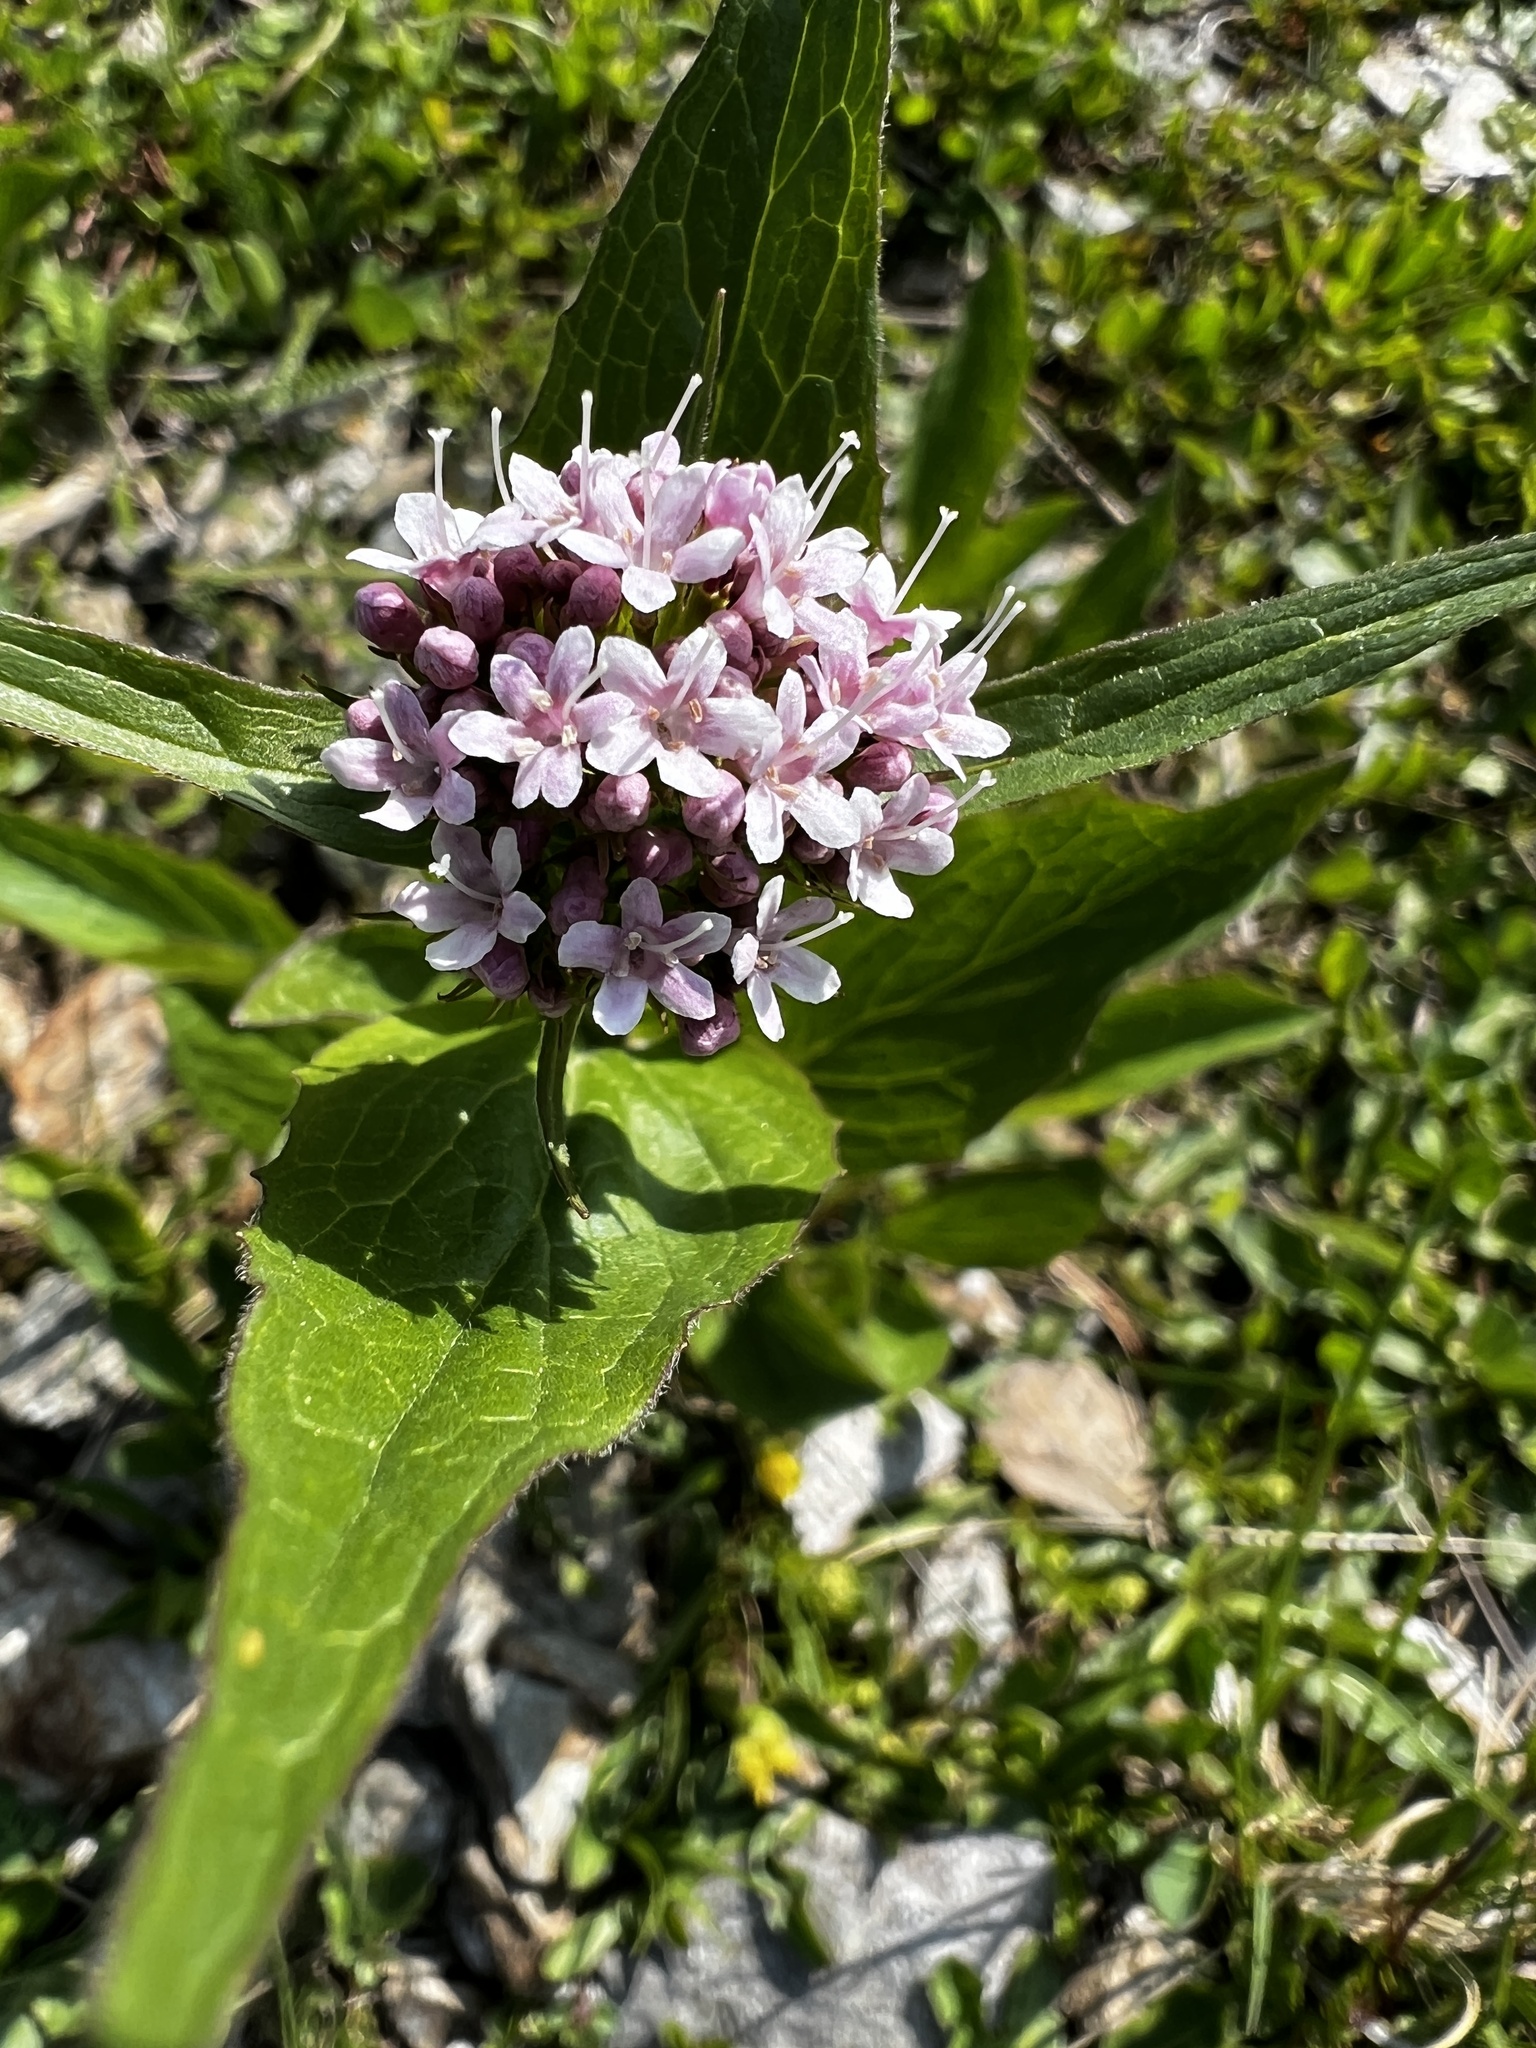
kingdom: Plantae
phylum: Tracheophyta
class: Magnoliopsida
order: Dipsacales
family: Caprifoliaceae
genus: Valeriana
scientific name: Valeriana montana
